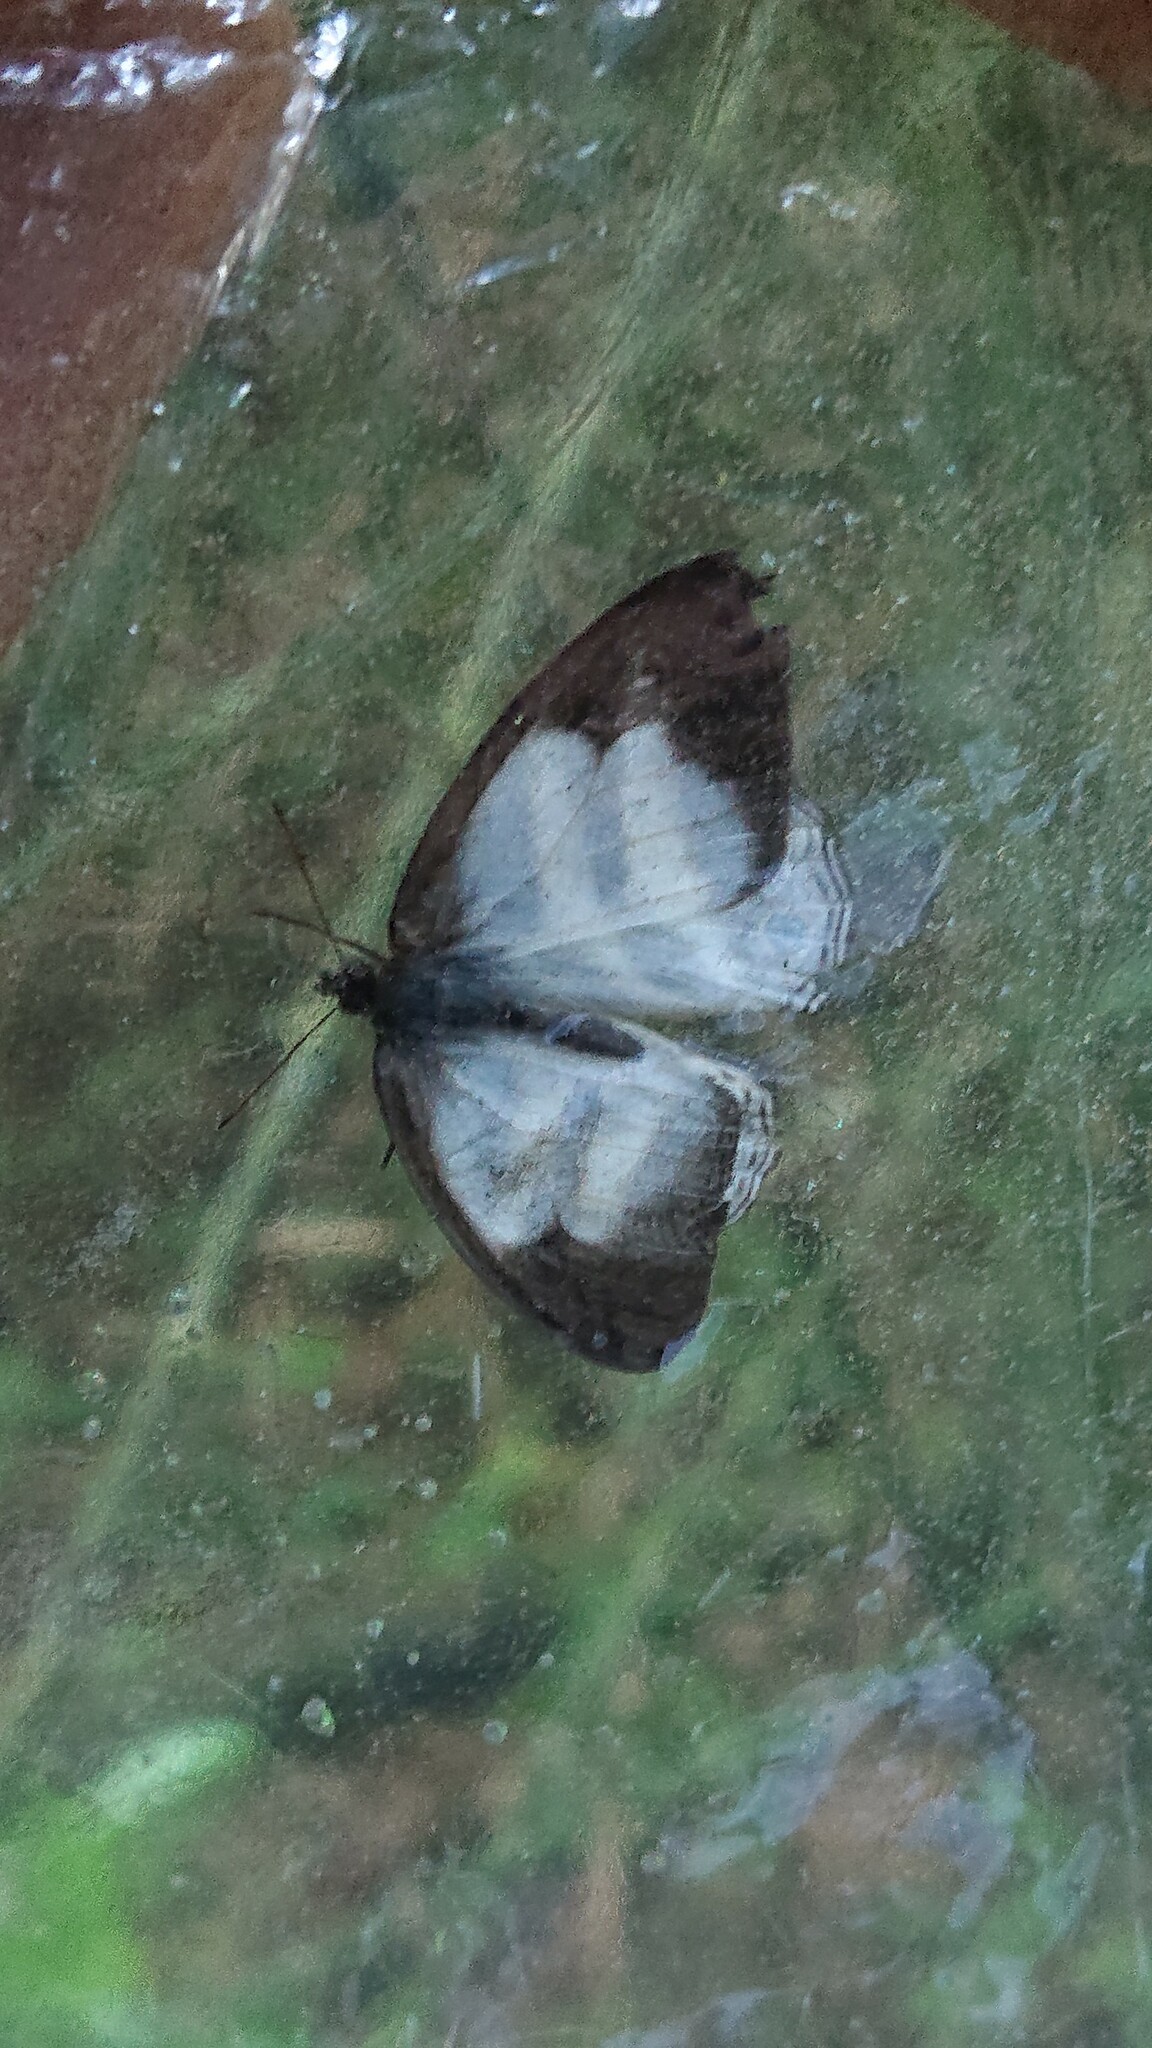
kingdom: Animalia
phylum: Arthropoda
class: Insecta
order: Lepidoptera
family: Nymphalidae
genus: Pareuptychia
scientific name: Pareuptychia hesione
